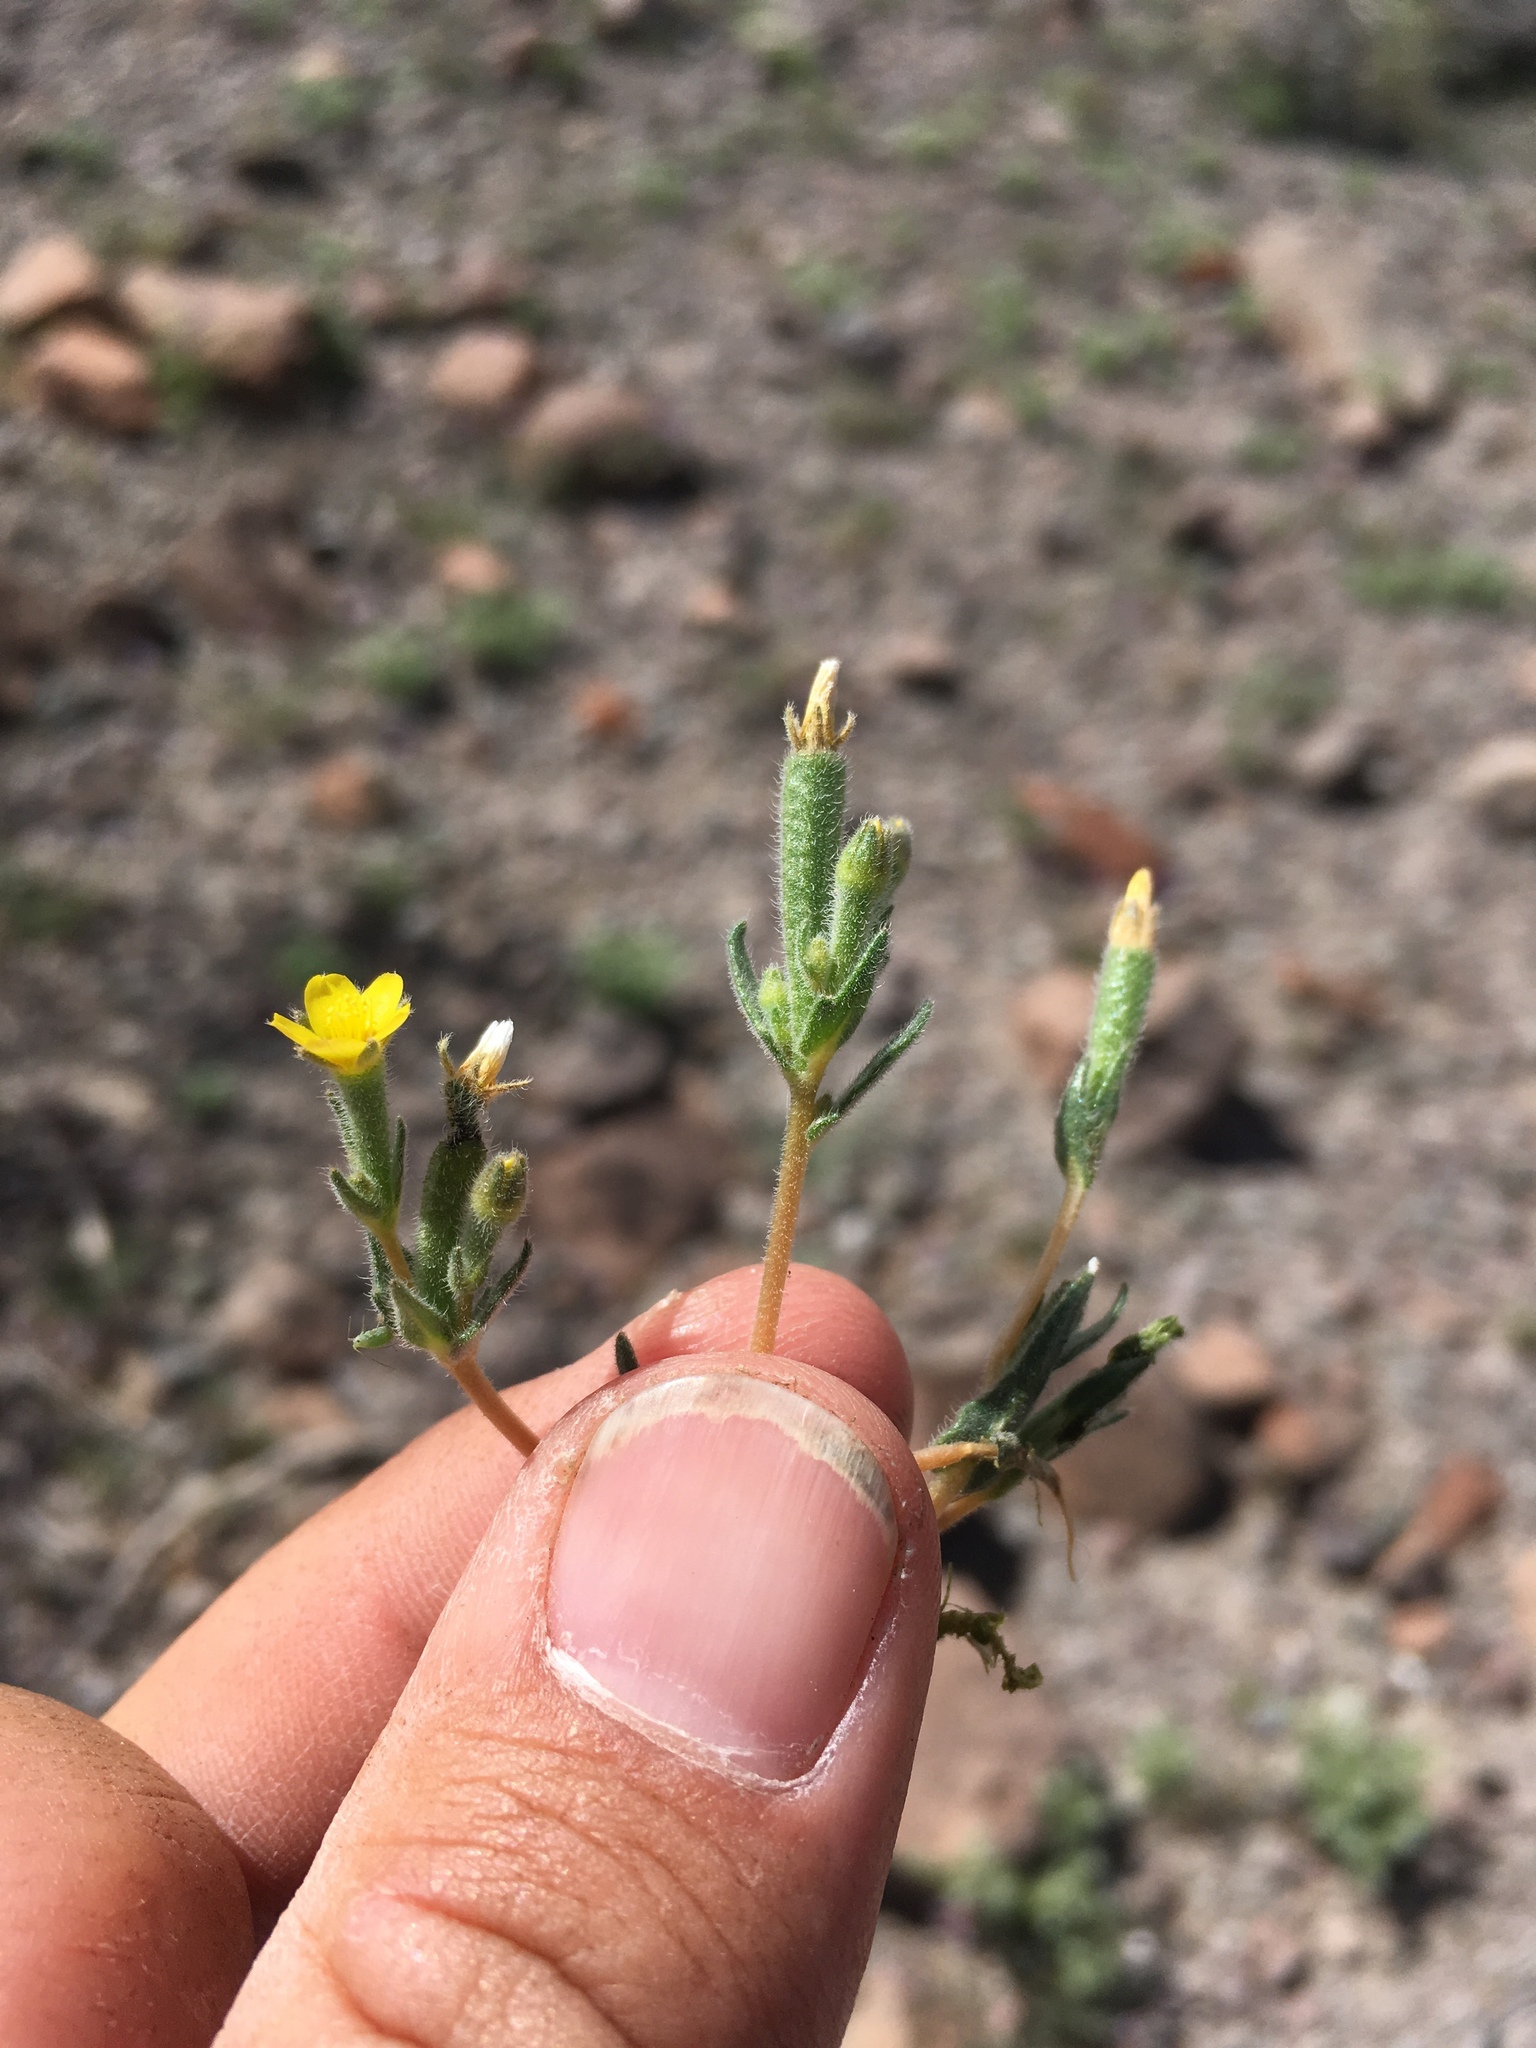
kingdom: Plantae
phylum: Tracheophyta
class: Magnoliopsida
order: Cornales
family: Loasaceae
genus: Mentzelia
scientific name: Mentzelia albicaulis
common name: White-stem blazingstar
